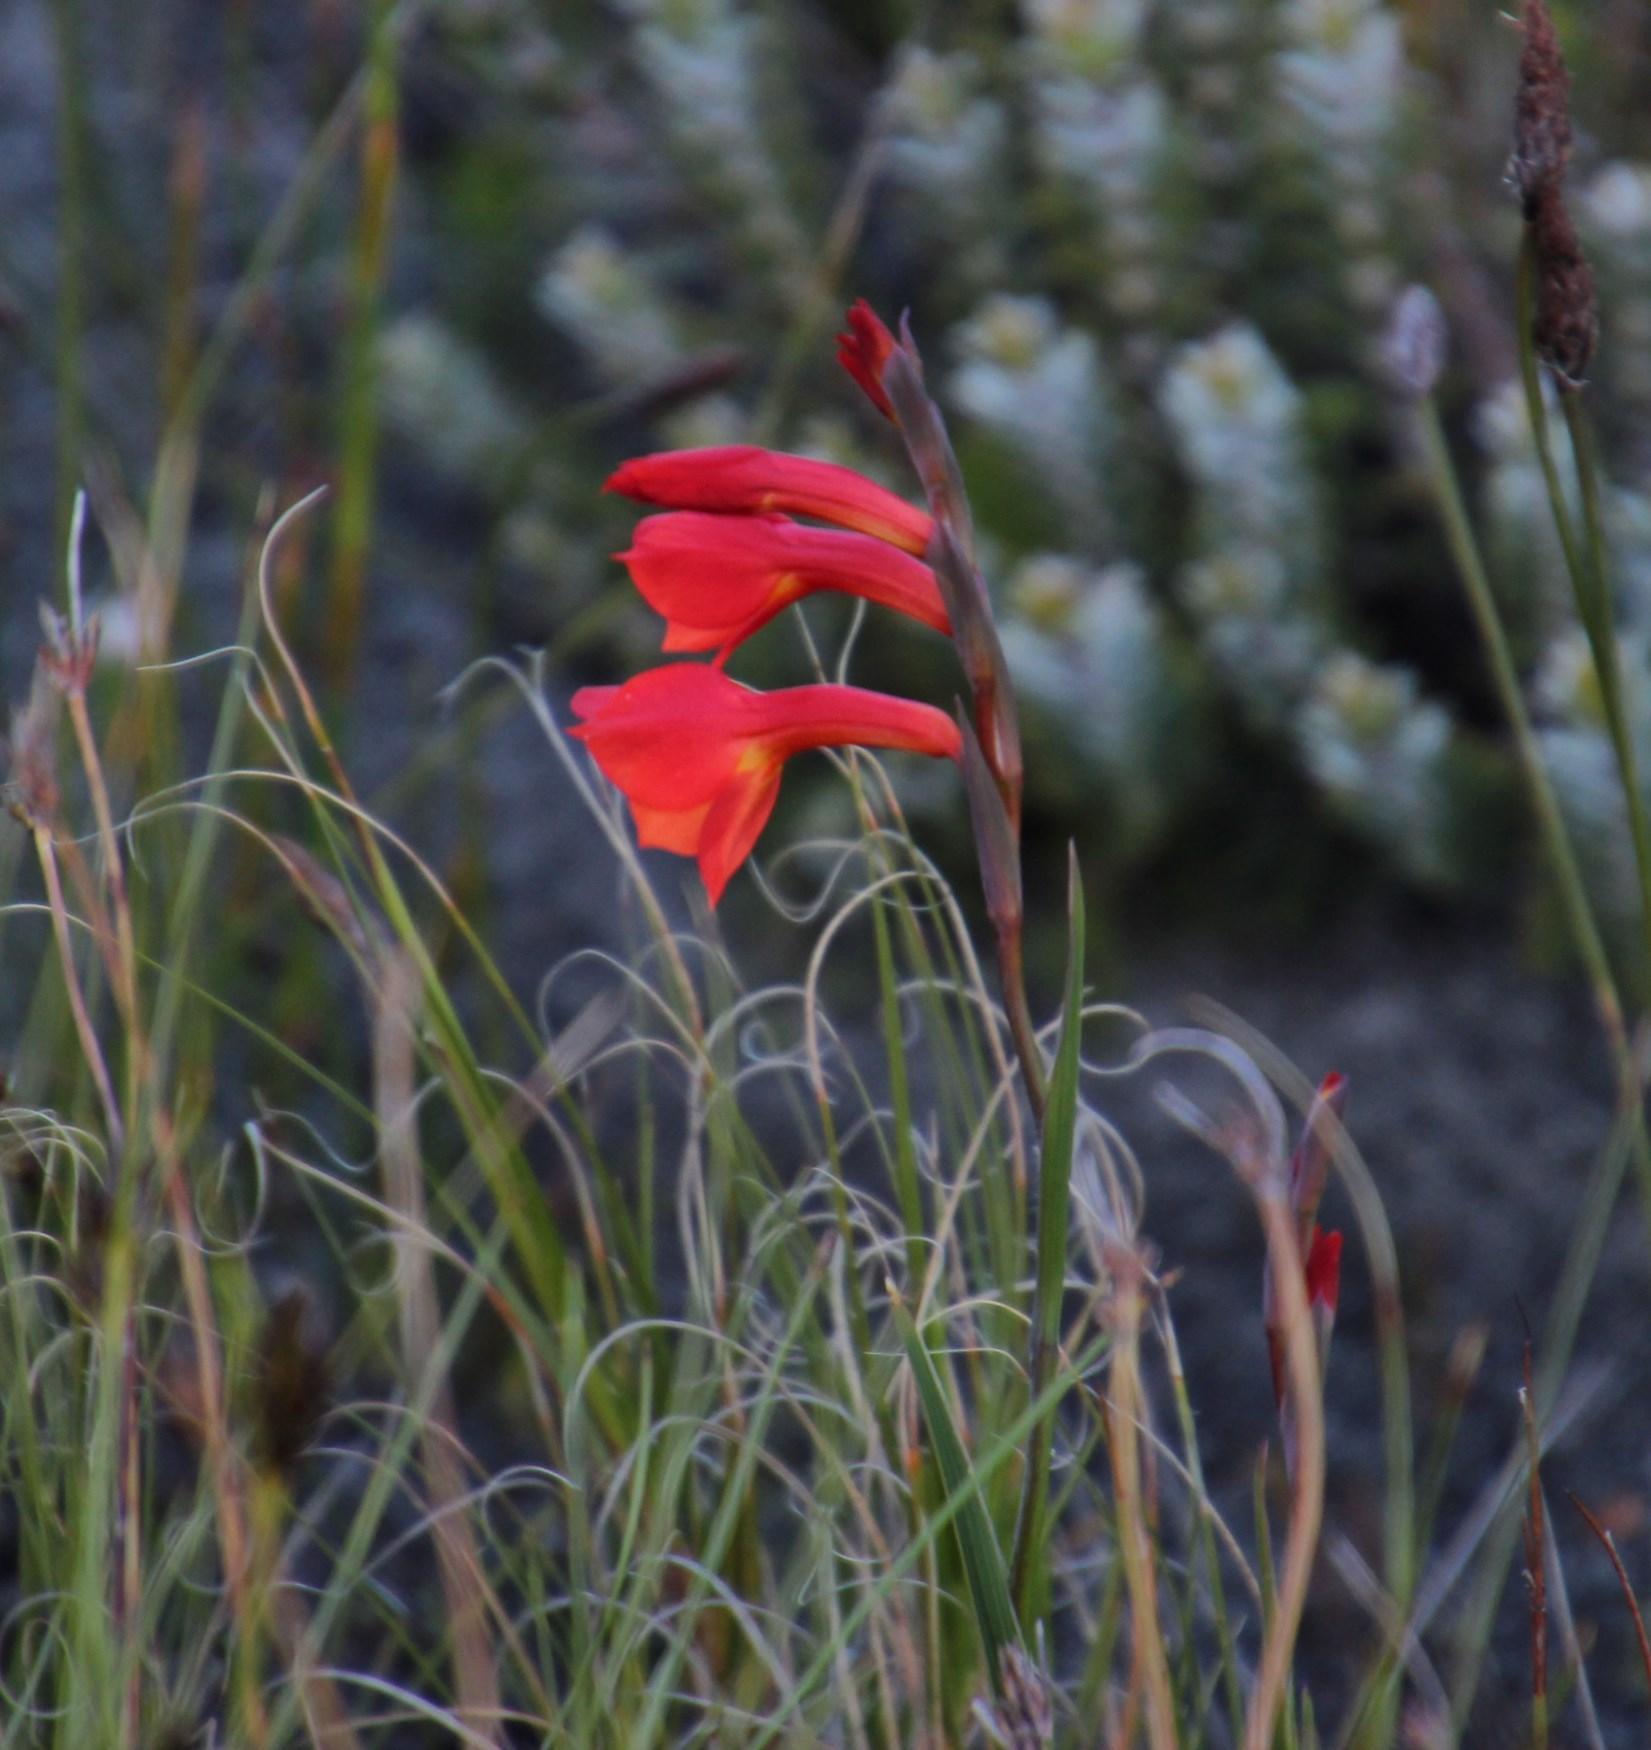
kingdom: Plantae
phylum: Tracheophyta
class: Liliopsida
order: Asparagales
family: Iridaceae
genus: Gladiolus
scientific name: Gladiolus merianellus
